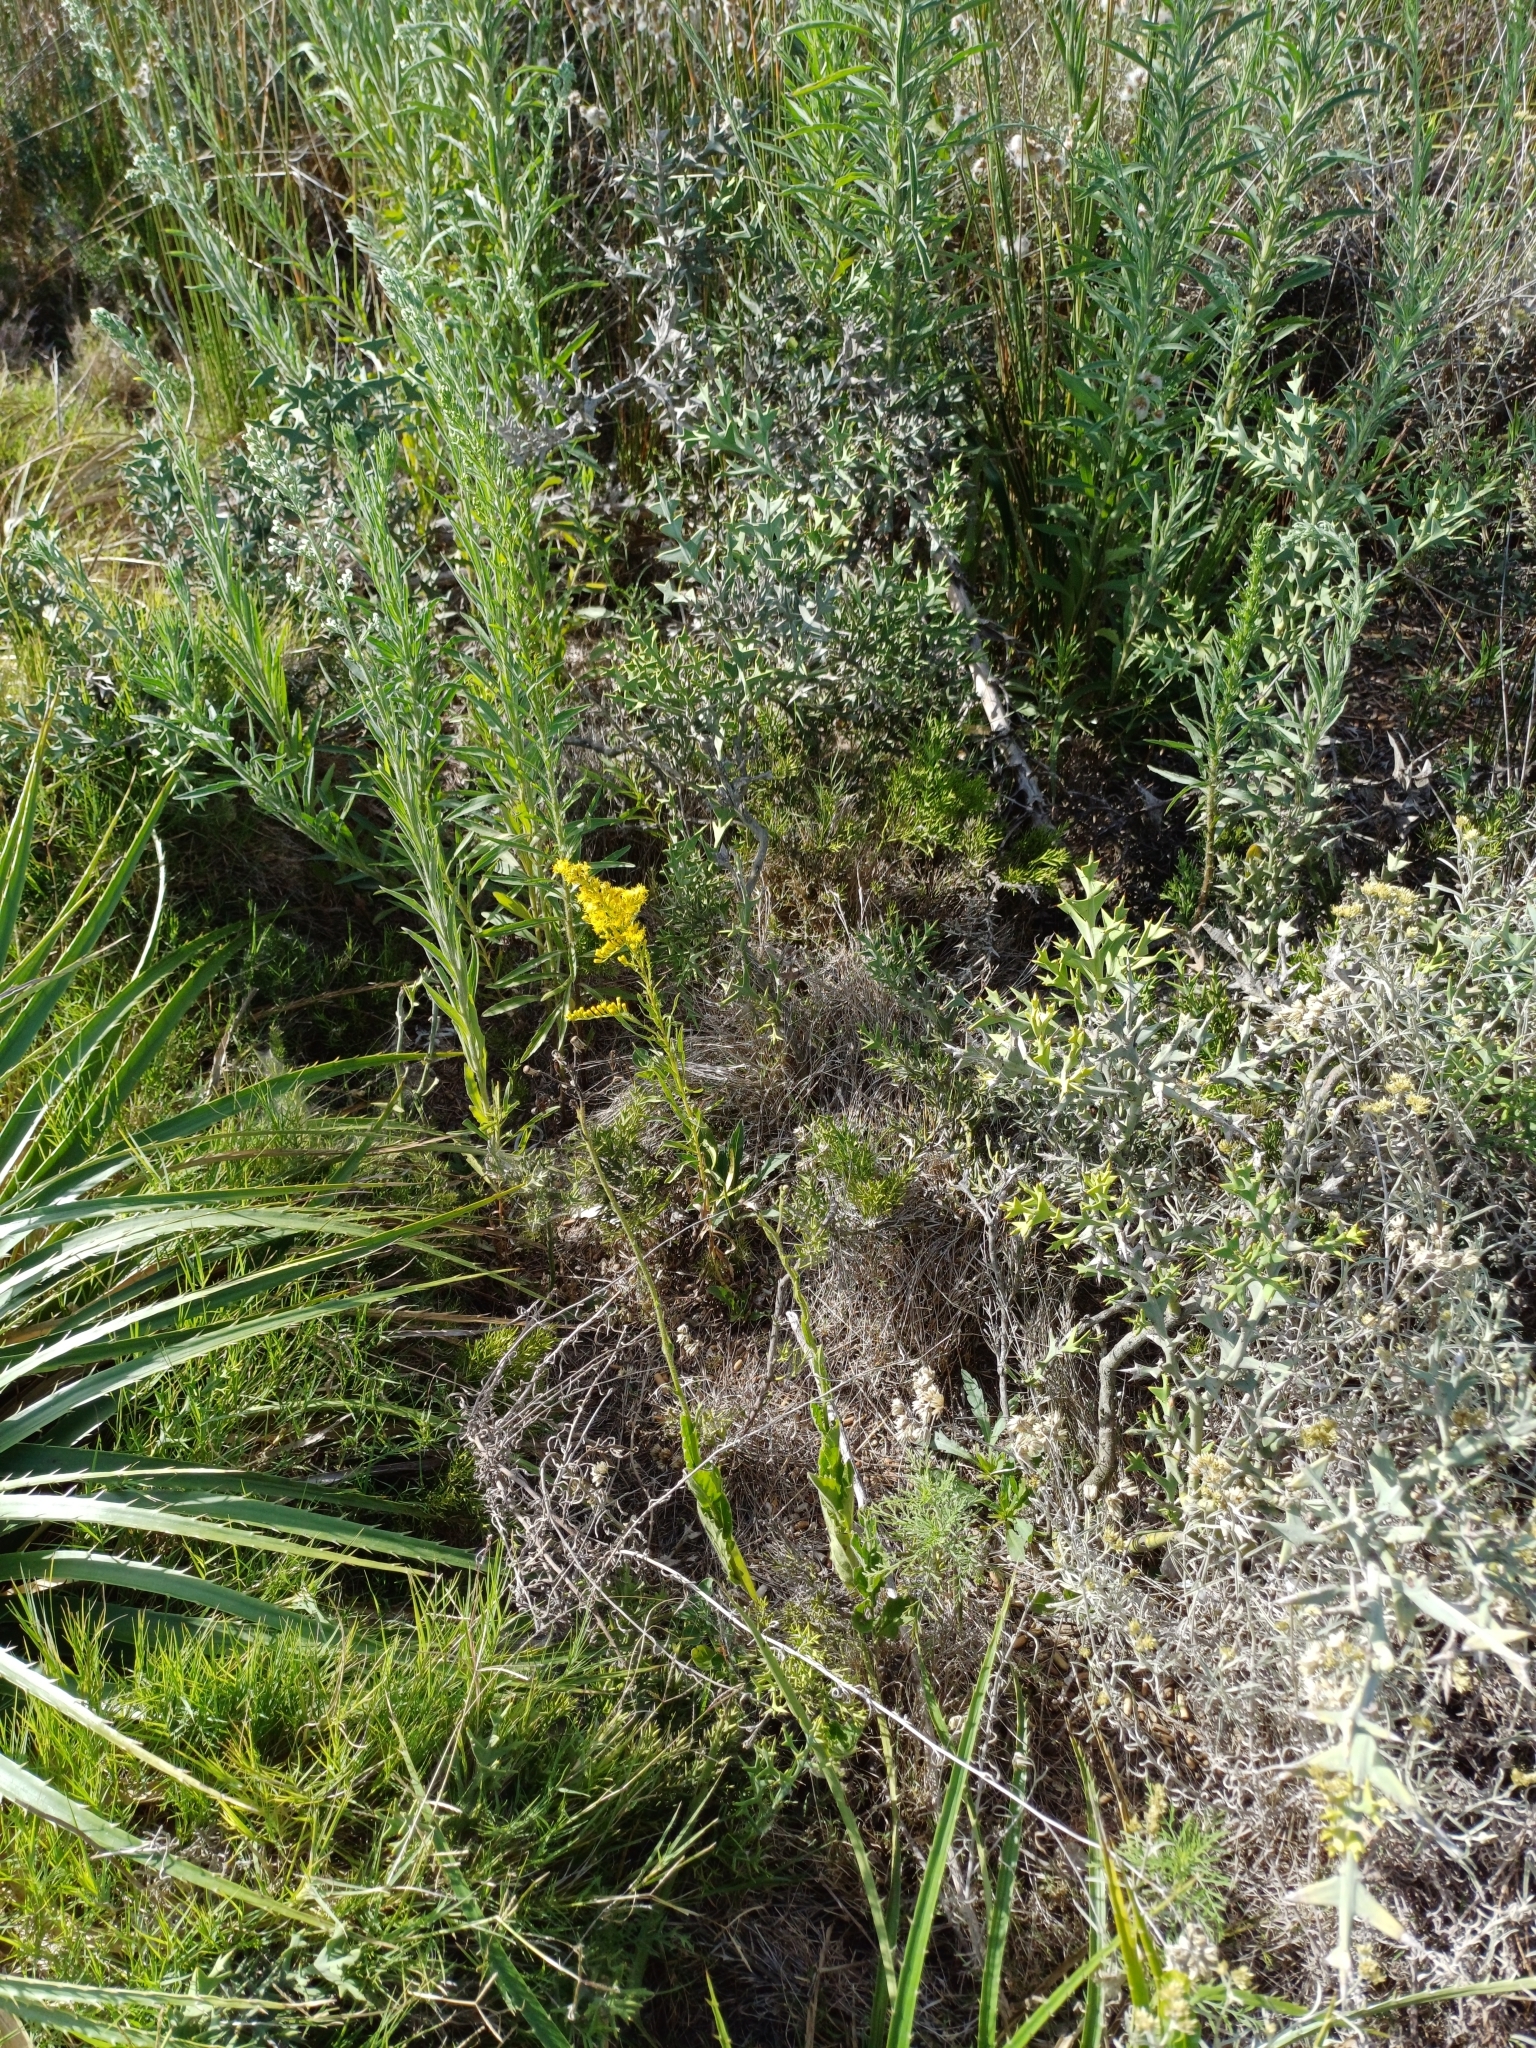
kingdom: Plantae
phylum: Tracheophyta
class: Magnoliopsida
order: Asterales
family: Asteraceae
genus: Solidago
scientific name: Solidago chilensis
